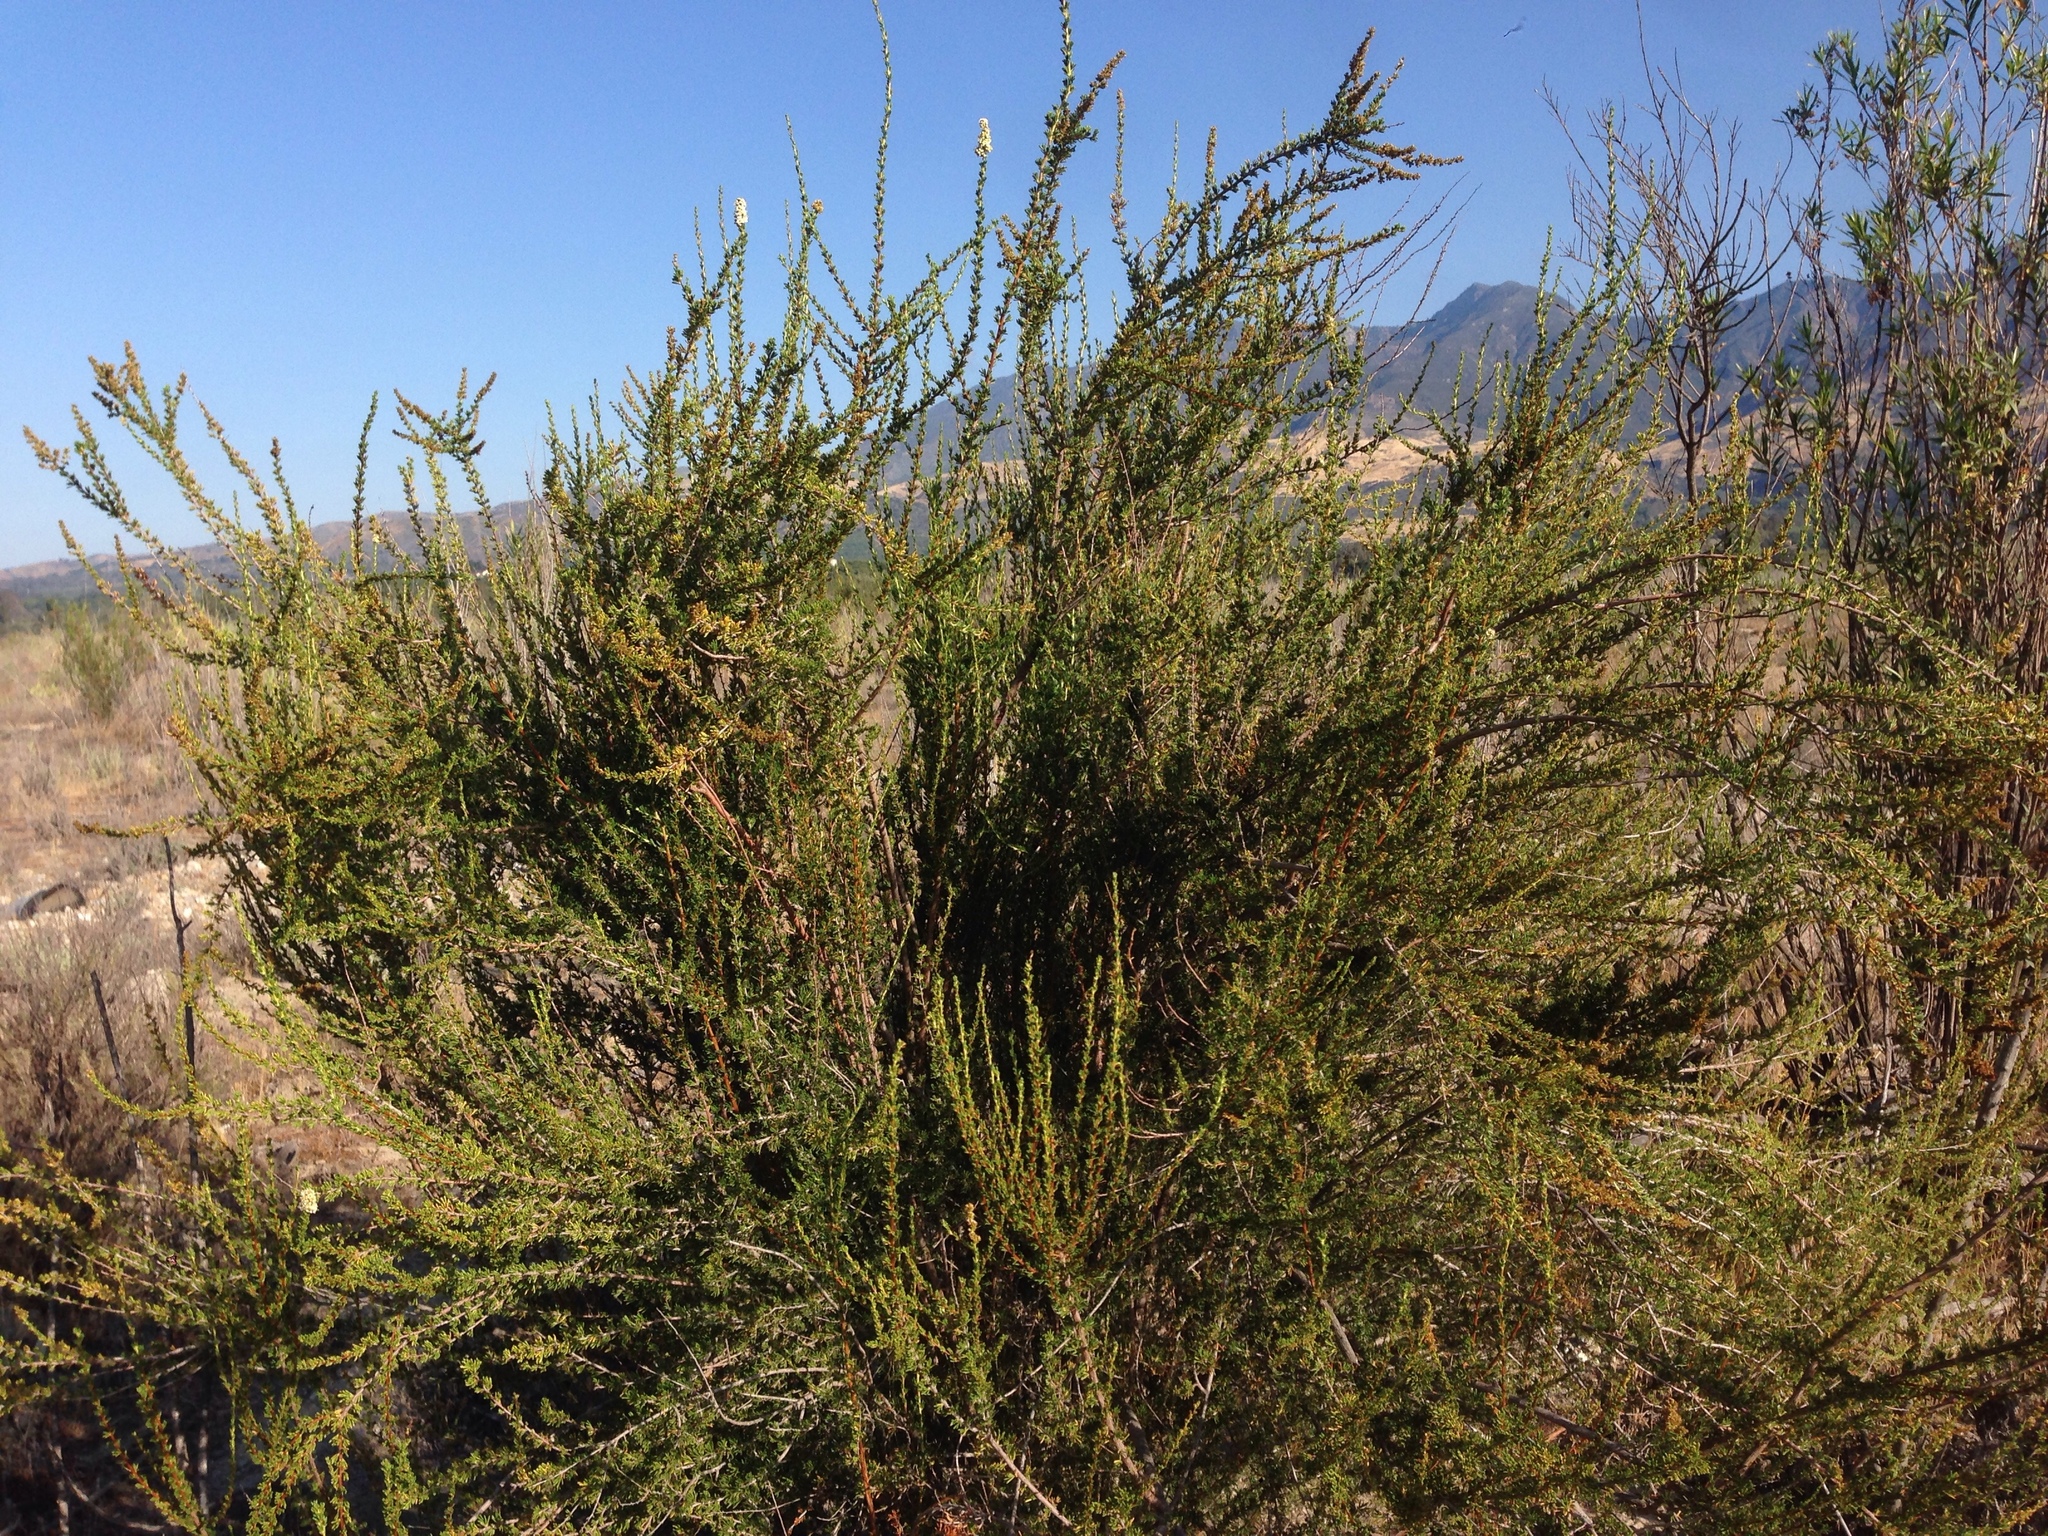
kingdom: Plantae
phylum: Tracheophyta
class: Magnoliopsida
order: Rosales
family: Rosaceae
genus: Adenostoma
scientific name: Adenostoma fasciculatum
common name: Chamise
